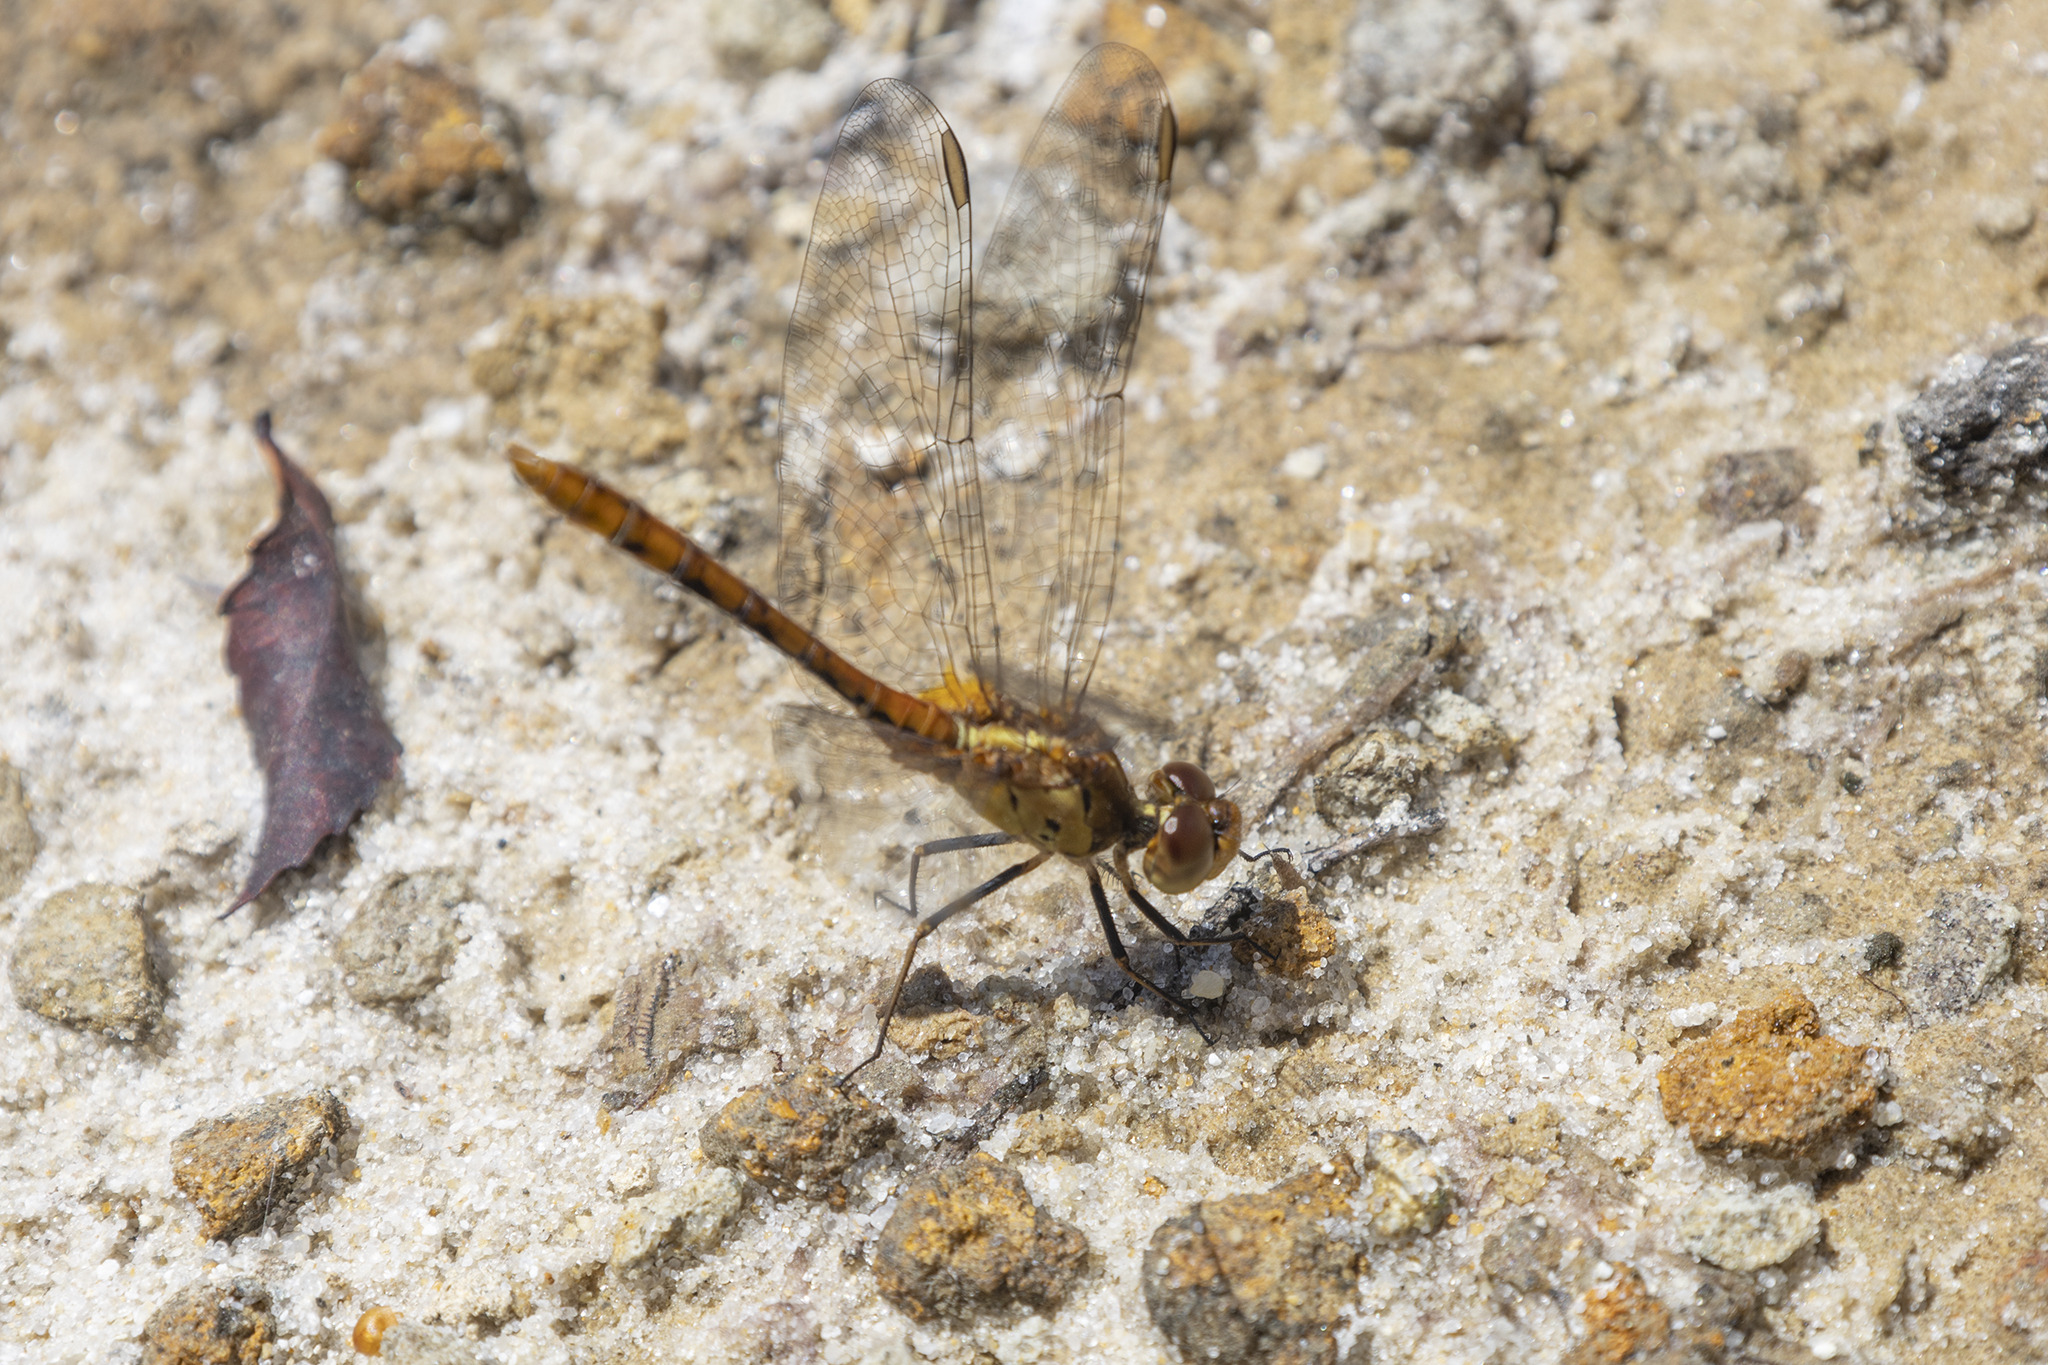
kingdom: Animalia
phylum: Arthropoda
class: Insecta
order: Odonata
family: Libellulidae
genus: Diplacodes
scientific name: Diplacodes bipunctata
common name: Red percher dragonfly
